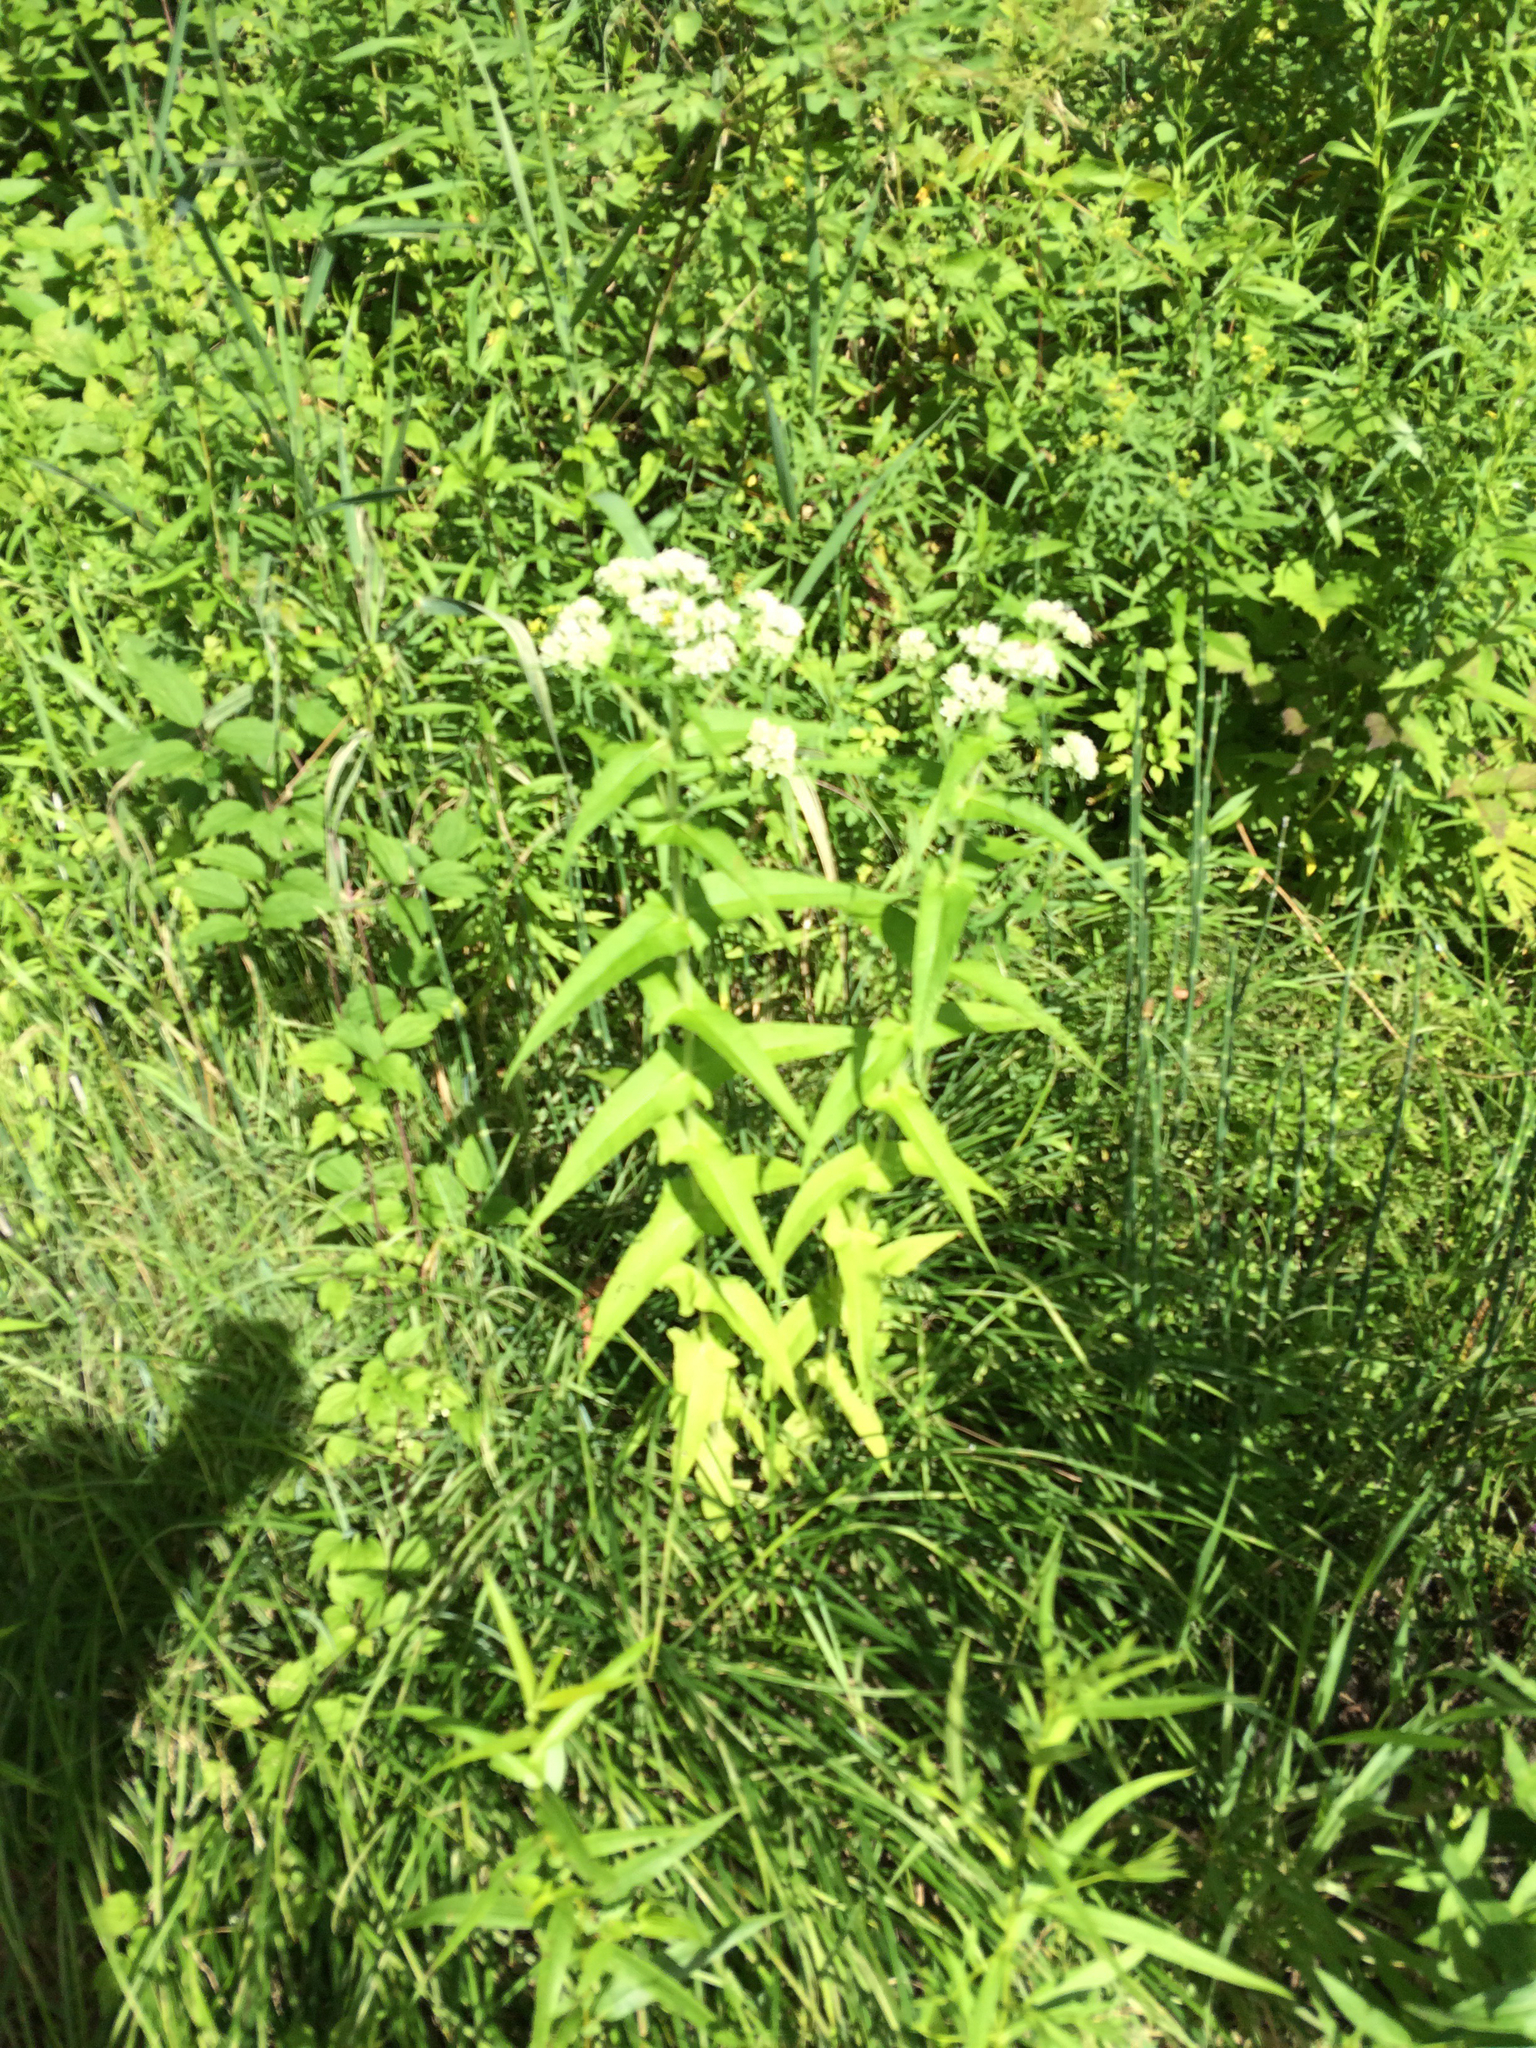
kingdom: Plantae
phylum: Tracheophyta
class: Magnoliopsida
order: Asterales
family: Asteraceae
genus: Eupatorium
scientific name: Eupatorium perfoliatum
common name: Boneset
